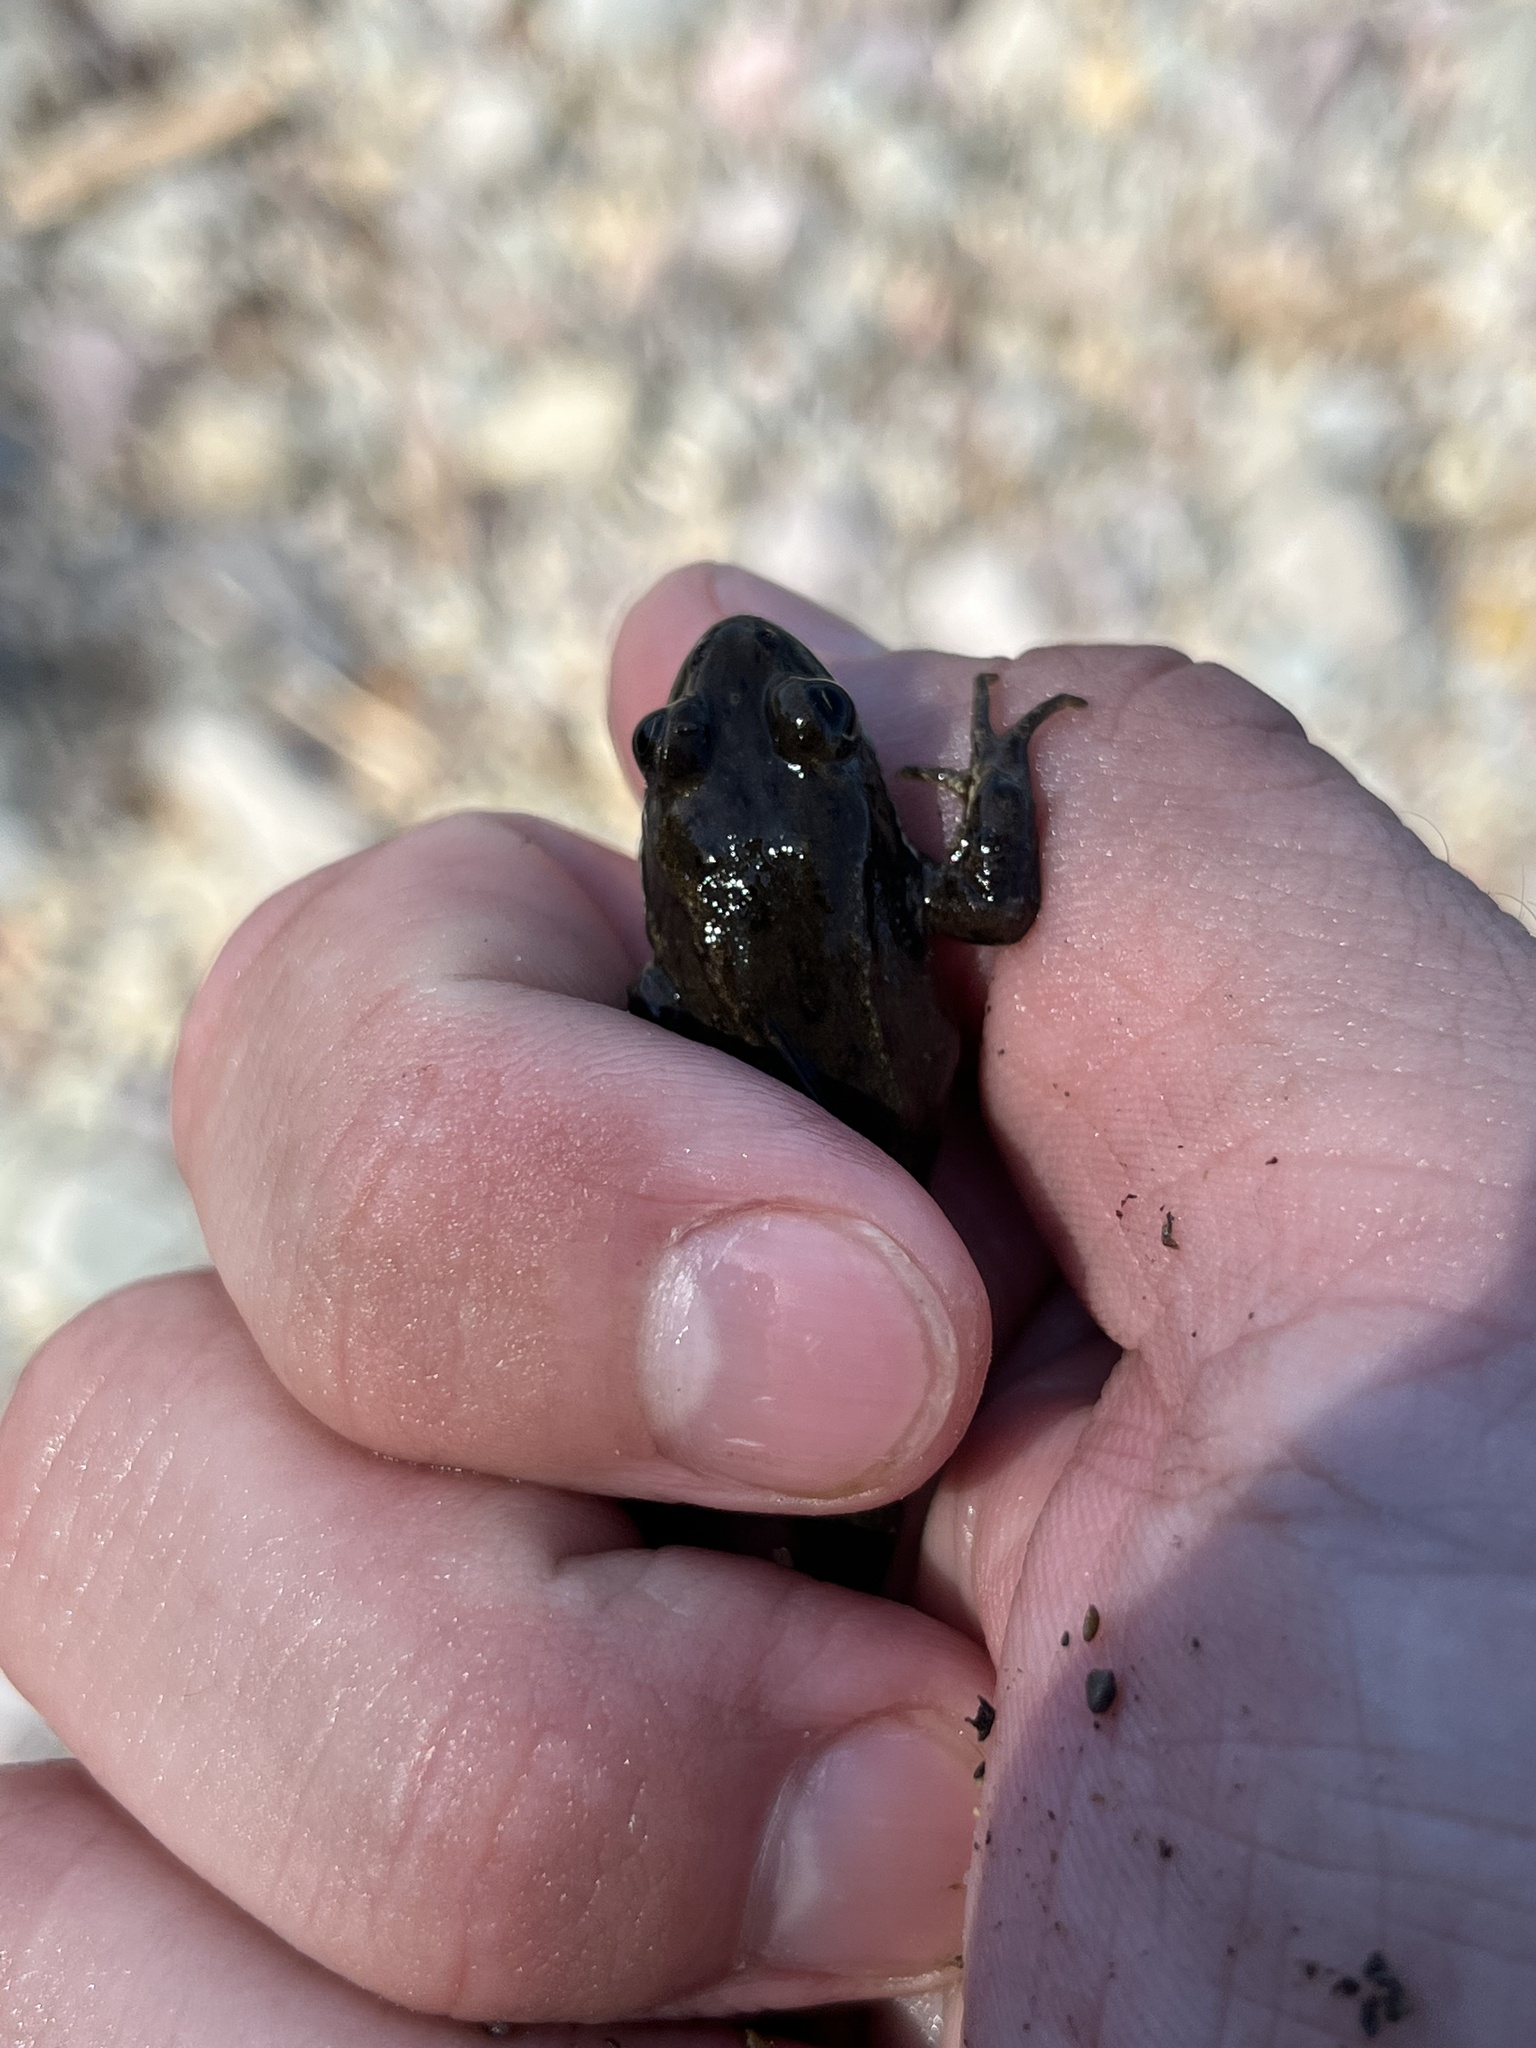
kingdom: Animalia
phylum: Chordata
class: Amphibia
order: Anura
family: Ranidae
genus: Rana
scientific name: Rana luteiventris
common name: Columbia spotted frog
